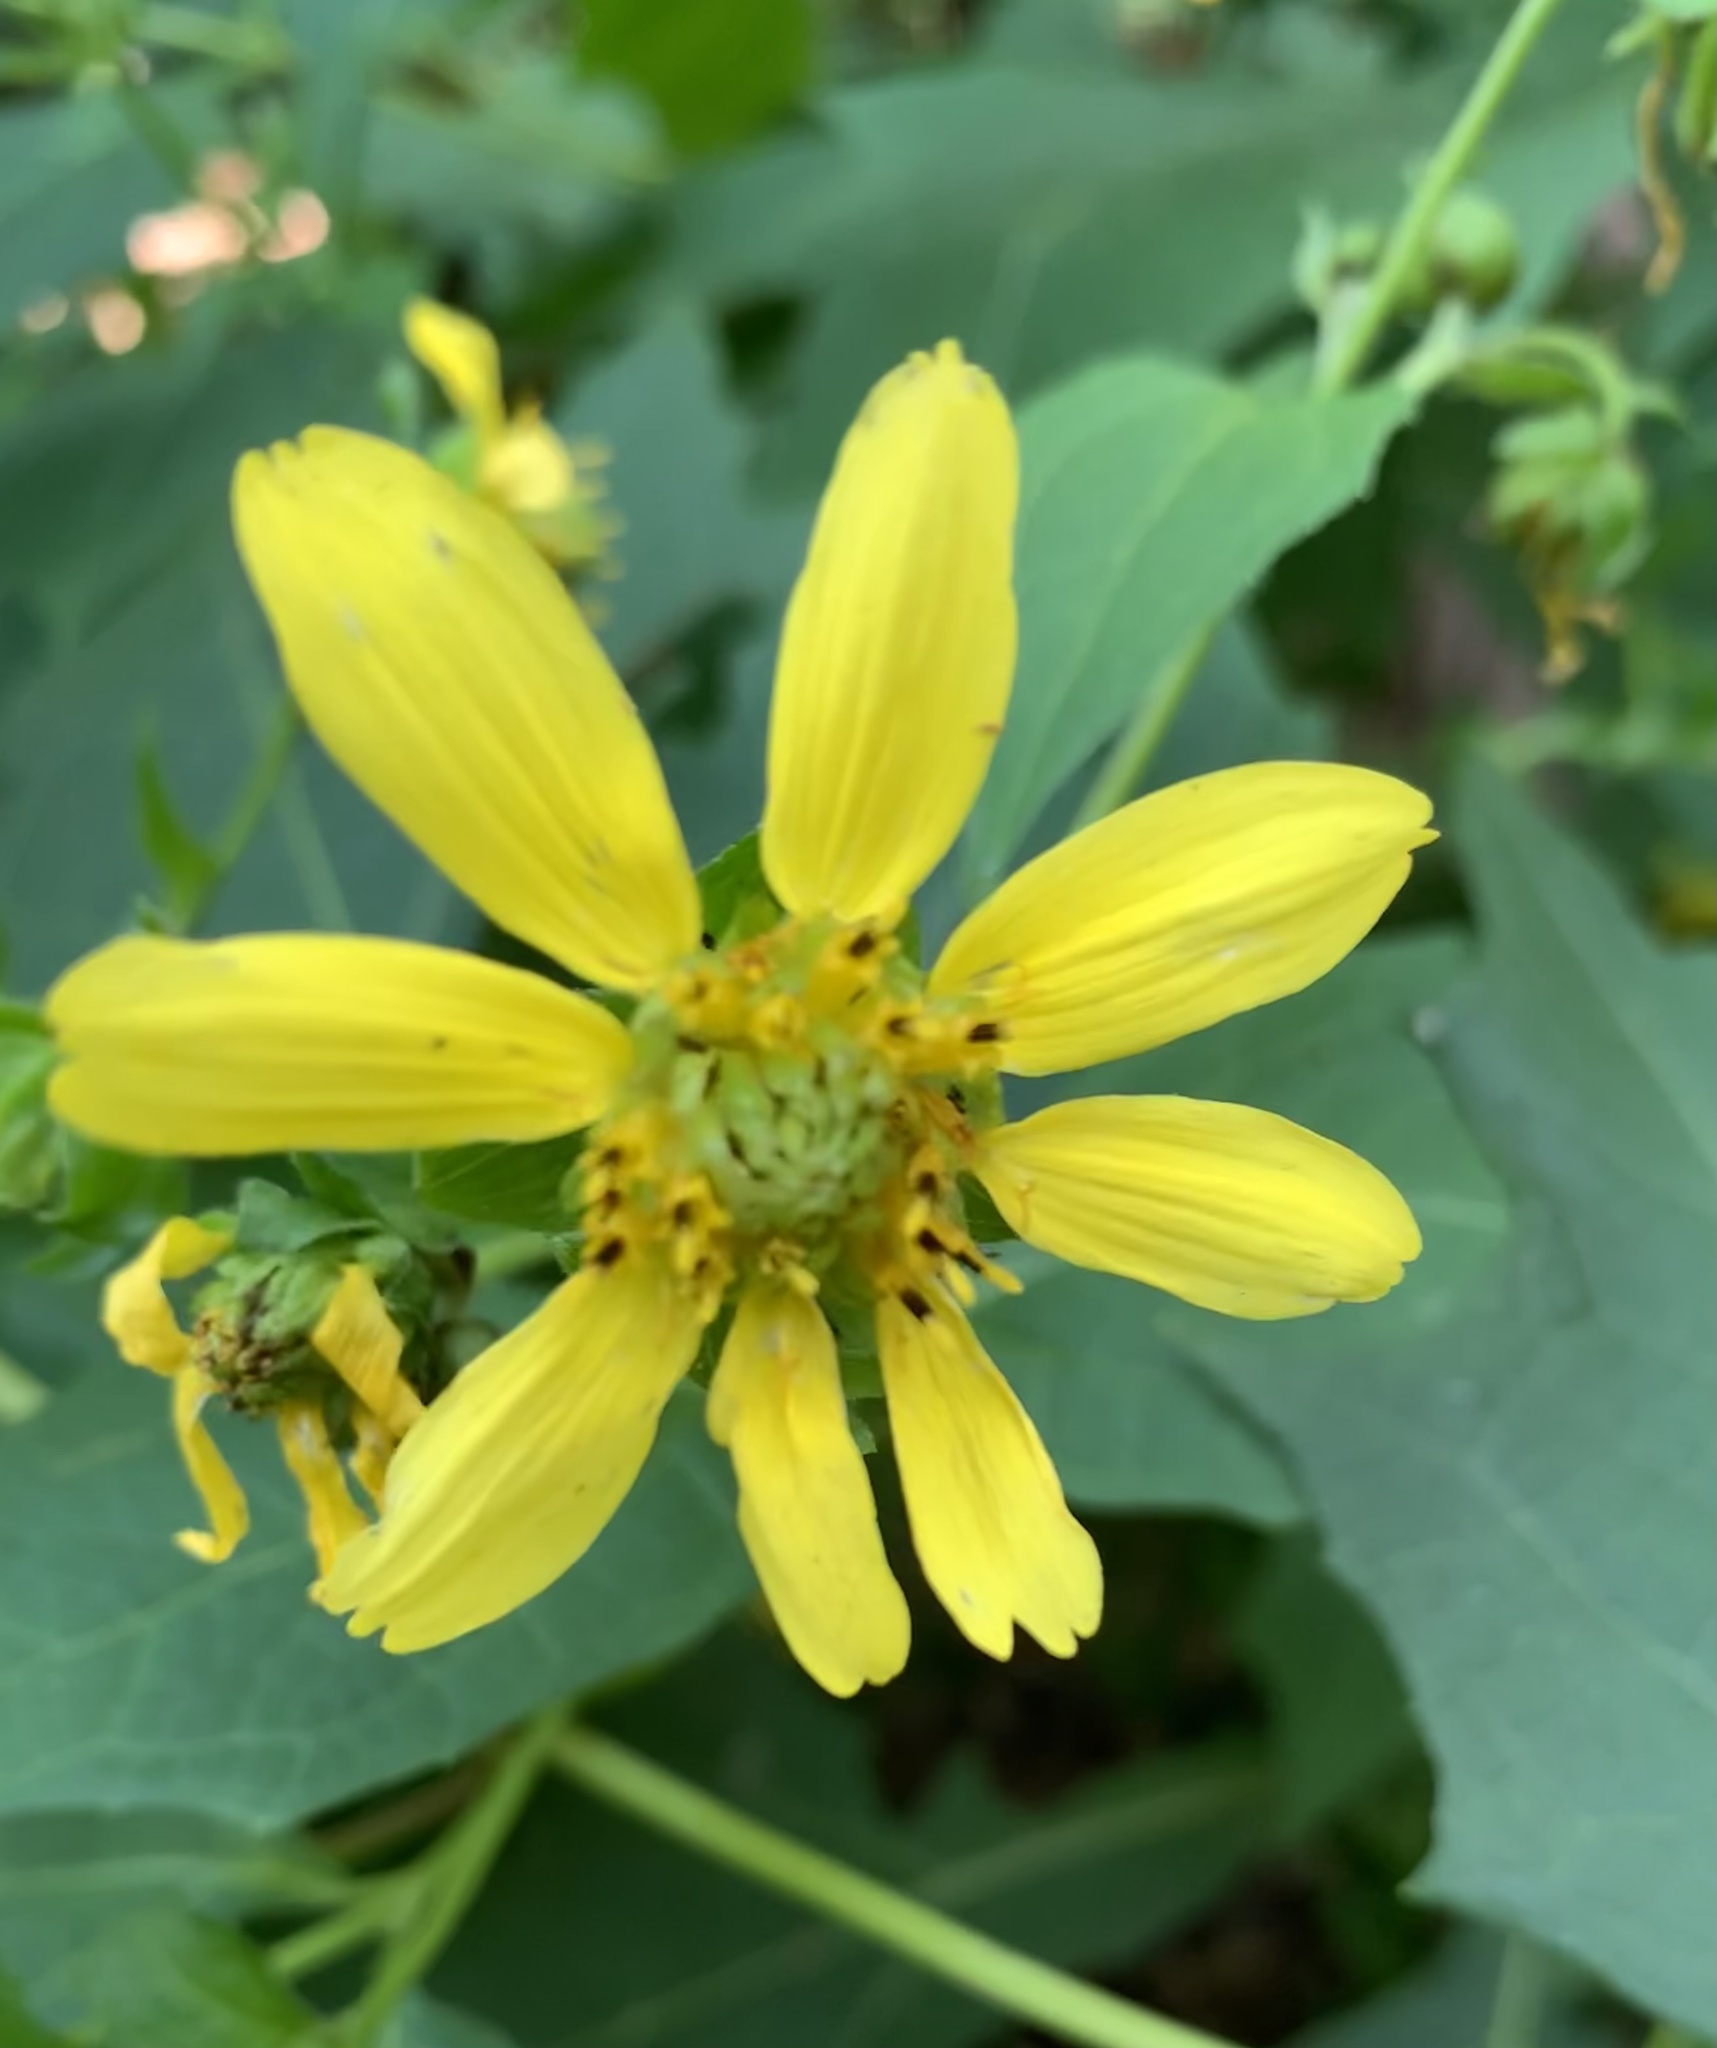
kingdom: Plantae
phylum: Tracheophyta
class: Magnoliopsida
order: Asterales
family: Asteraceae
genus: Smallanthus
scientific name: Smallanthus uvedalia
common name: Bear's-foot
